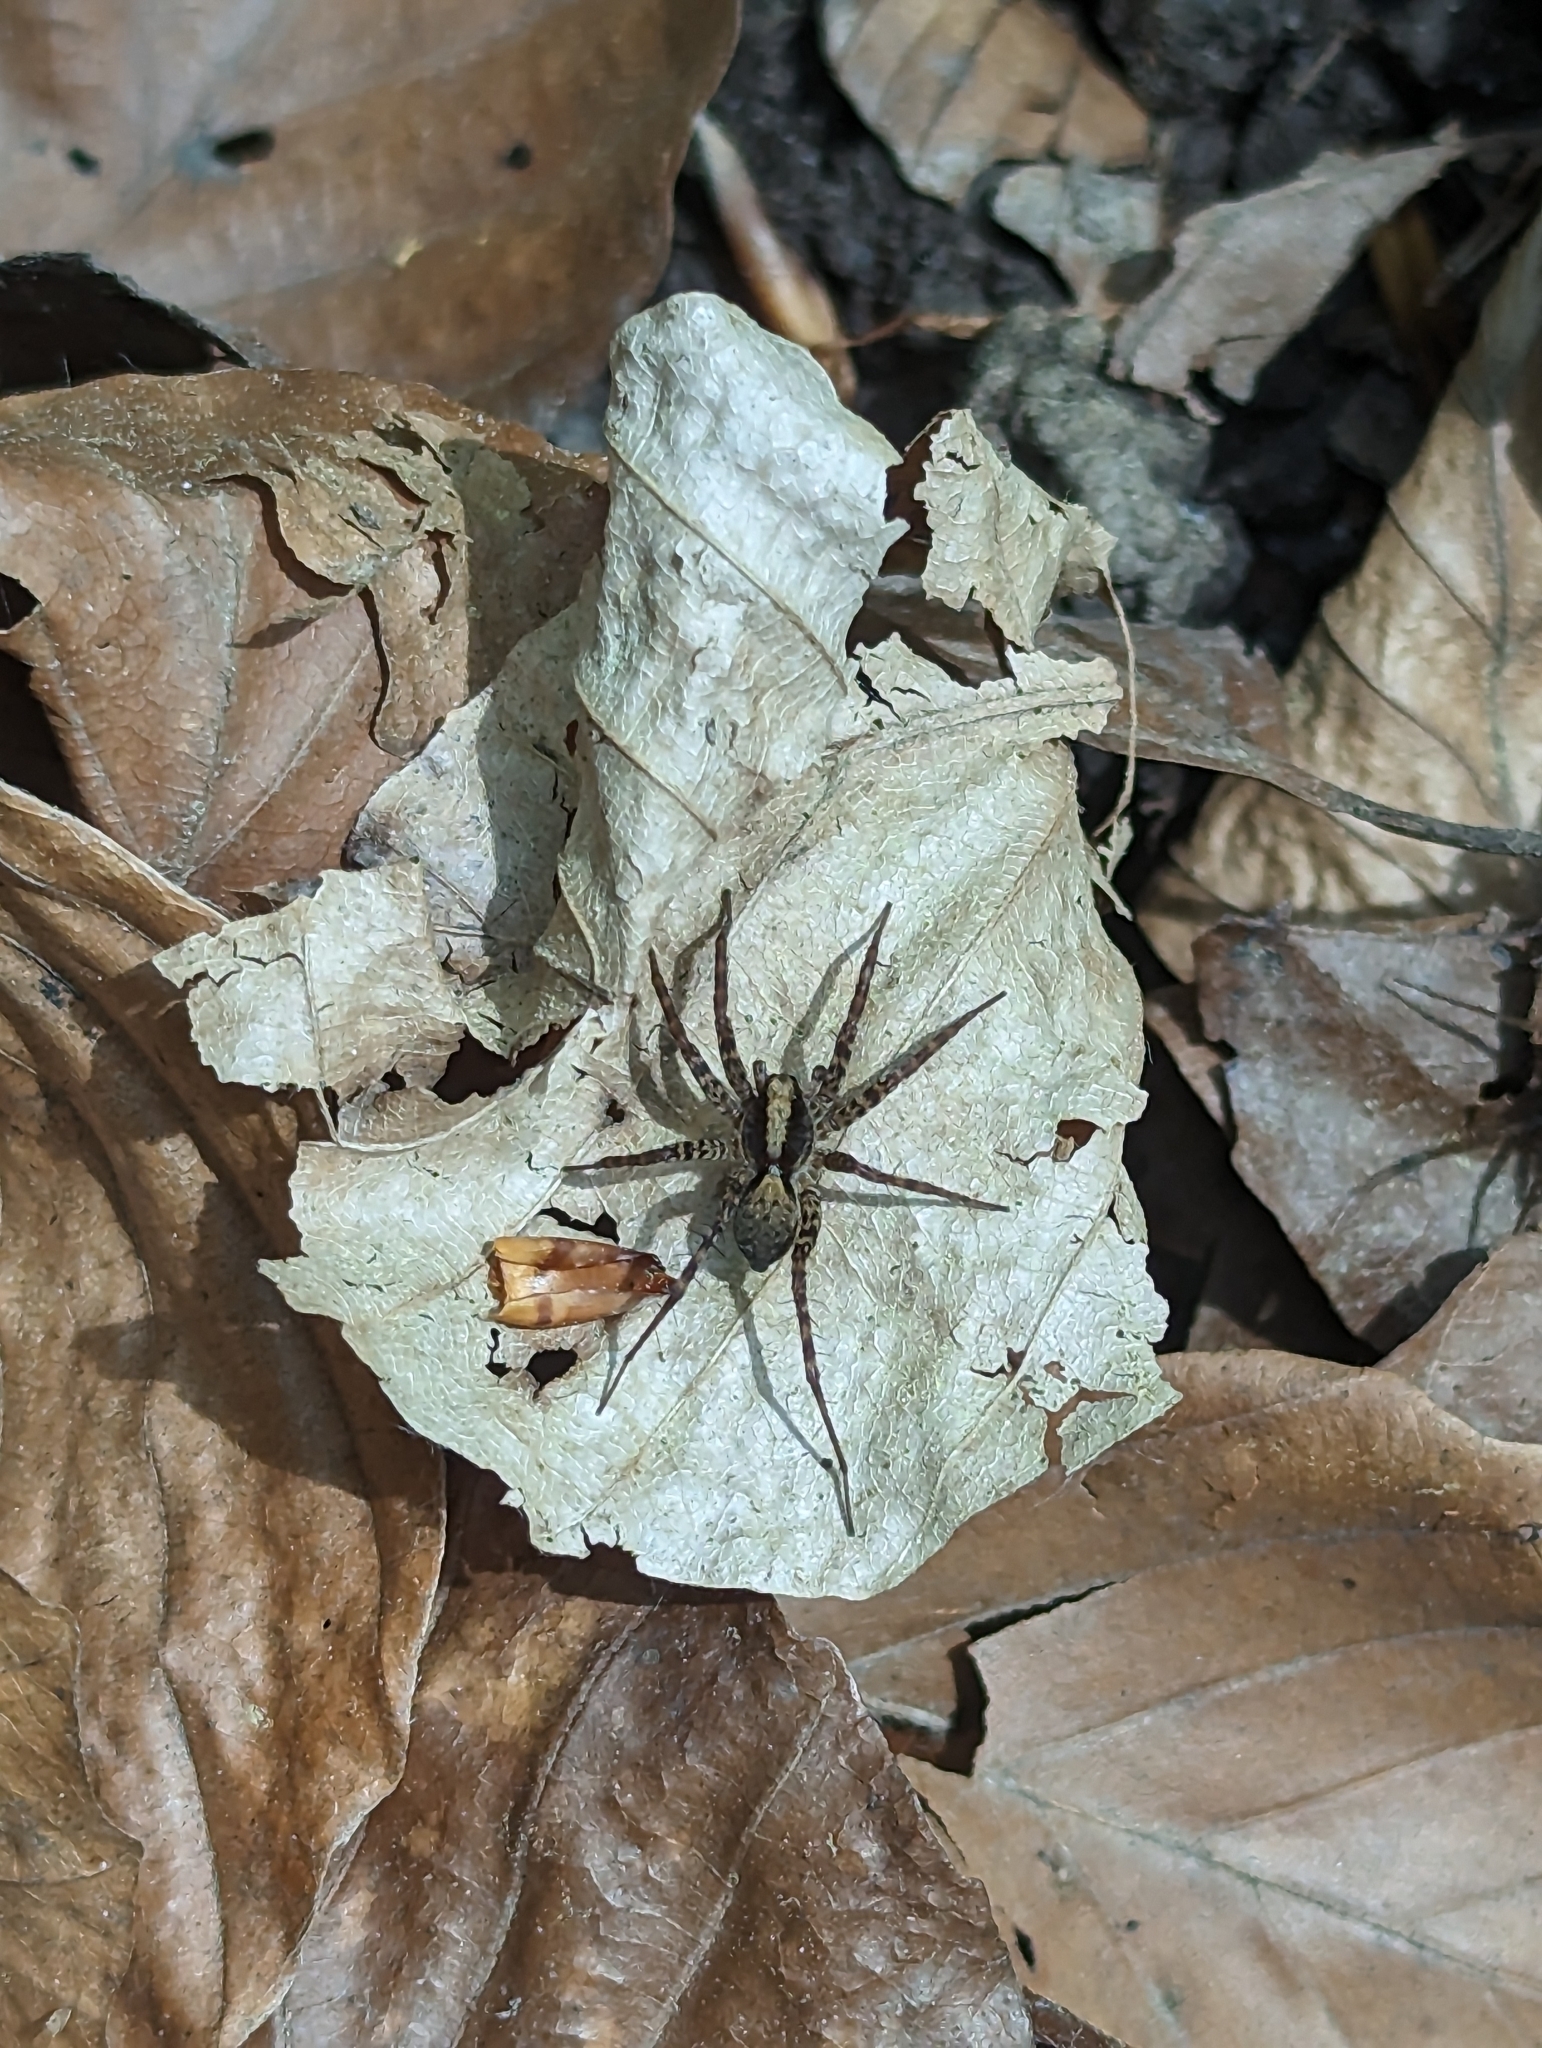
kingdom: Animalia
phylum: Arthropoda
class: Arachnida
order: Araneae
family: Lycosidae
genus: Pardosa
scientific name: Pardosa
